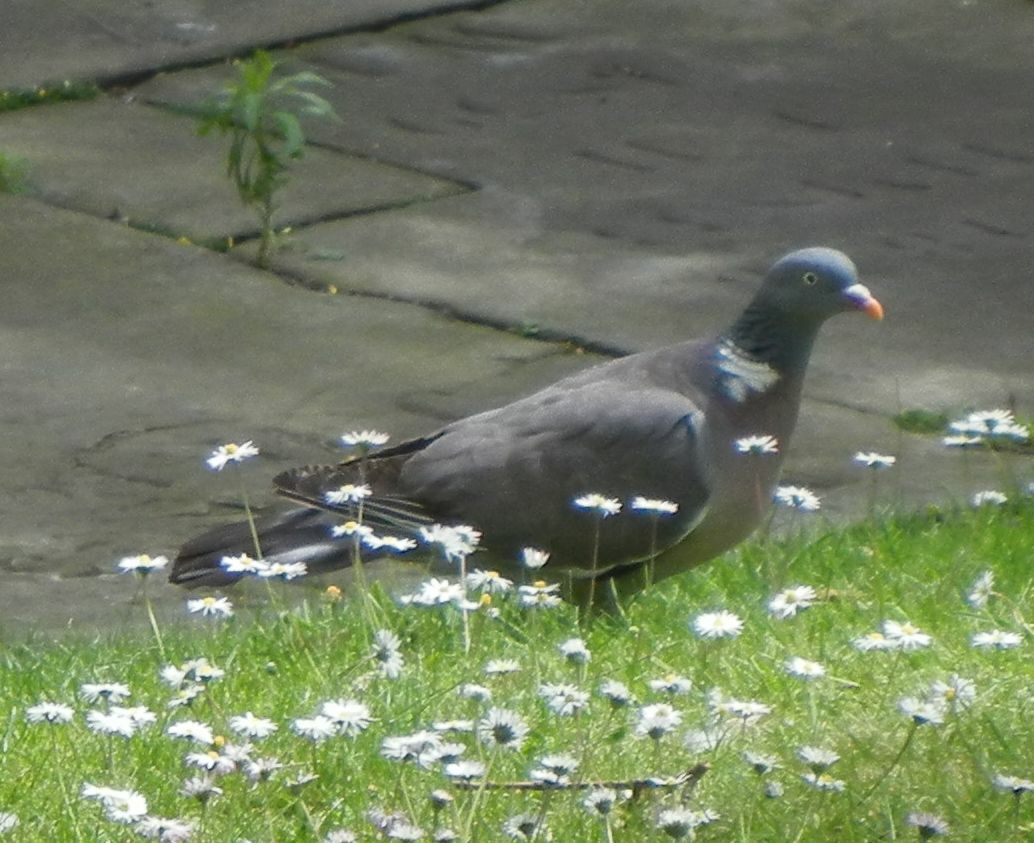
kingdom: Animalia
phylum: Chordata
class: Aves
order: Columbiformes
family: Columbidae
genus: Columba
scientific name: Columba palumbus
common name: Common wood pigeon
